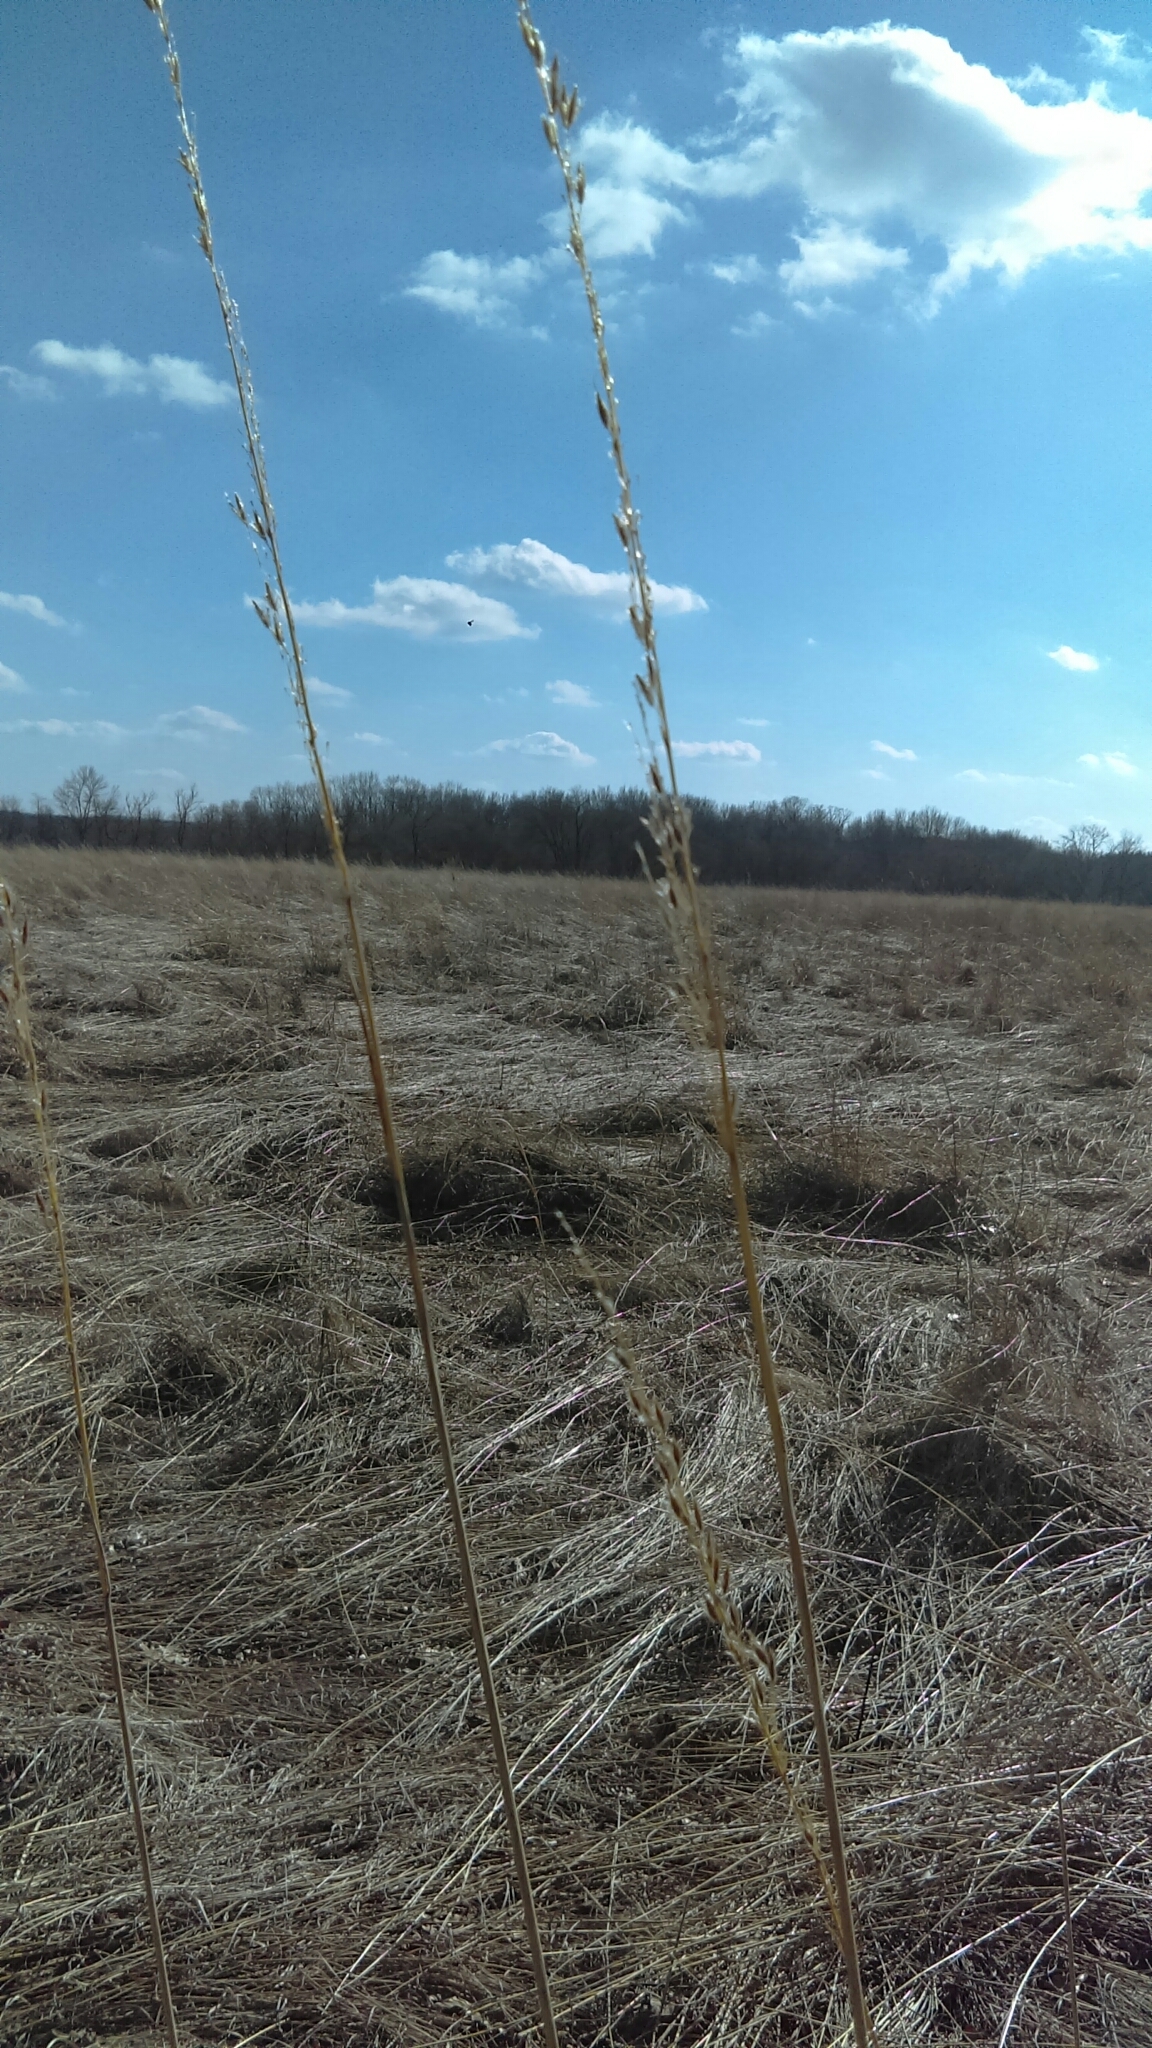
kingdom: Plantae
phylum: Tracheophyta
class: Liliopsida
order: Poales
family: Poaceae
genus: Sorghastrum
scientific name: Sorghastrum nutans
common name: Indian grass
